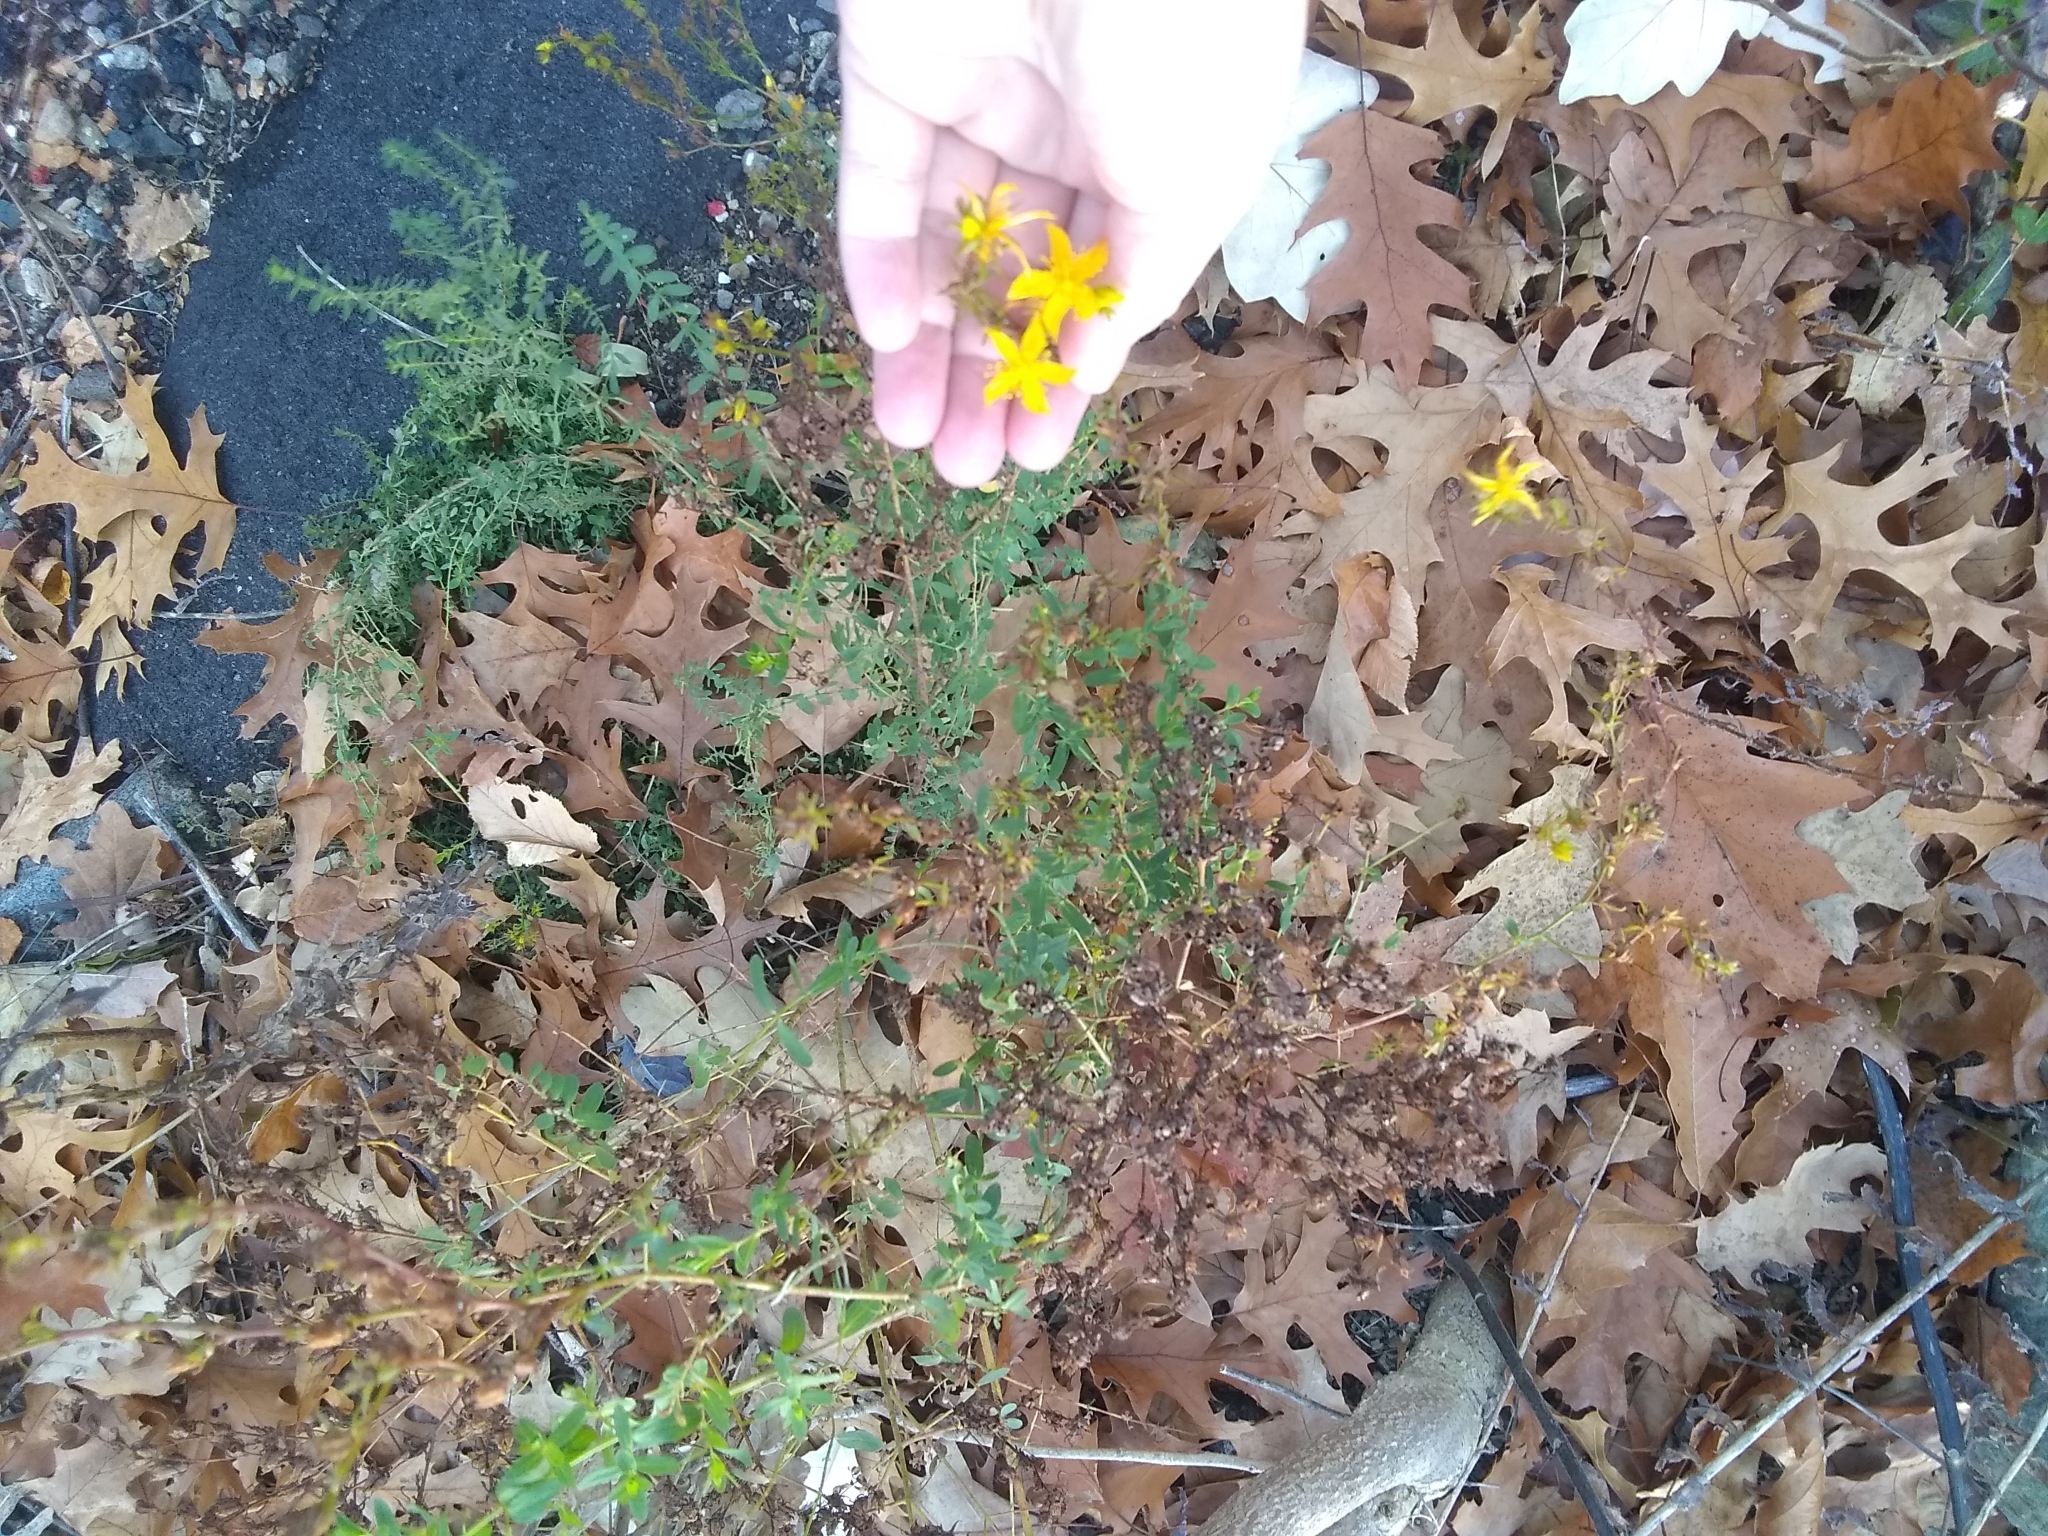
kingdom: Plantae
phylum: Tracheophyta
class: Magnoliopsida
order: Malpighiales
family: Hypericaceae
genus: Hypericum
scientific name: Hypericum perforatum
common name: Common st. johnswort
